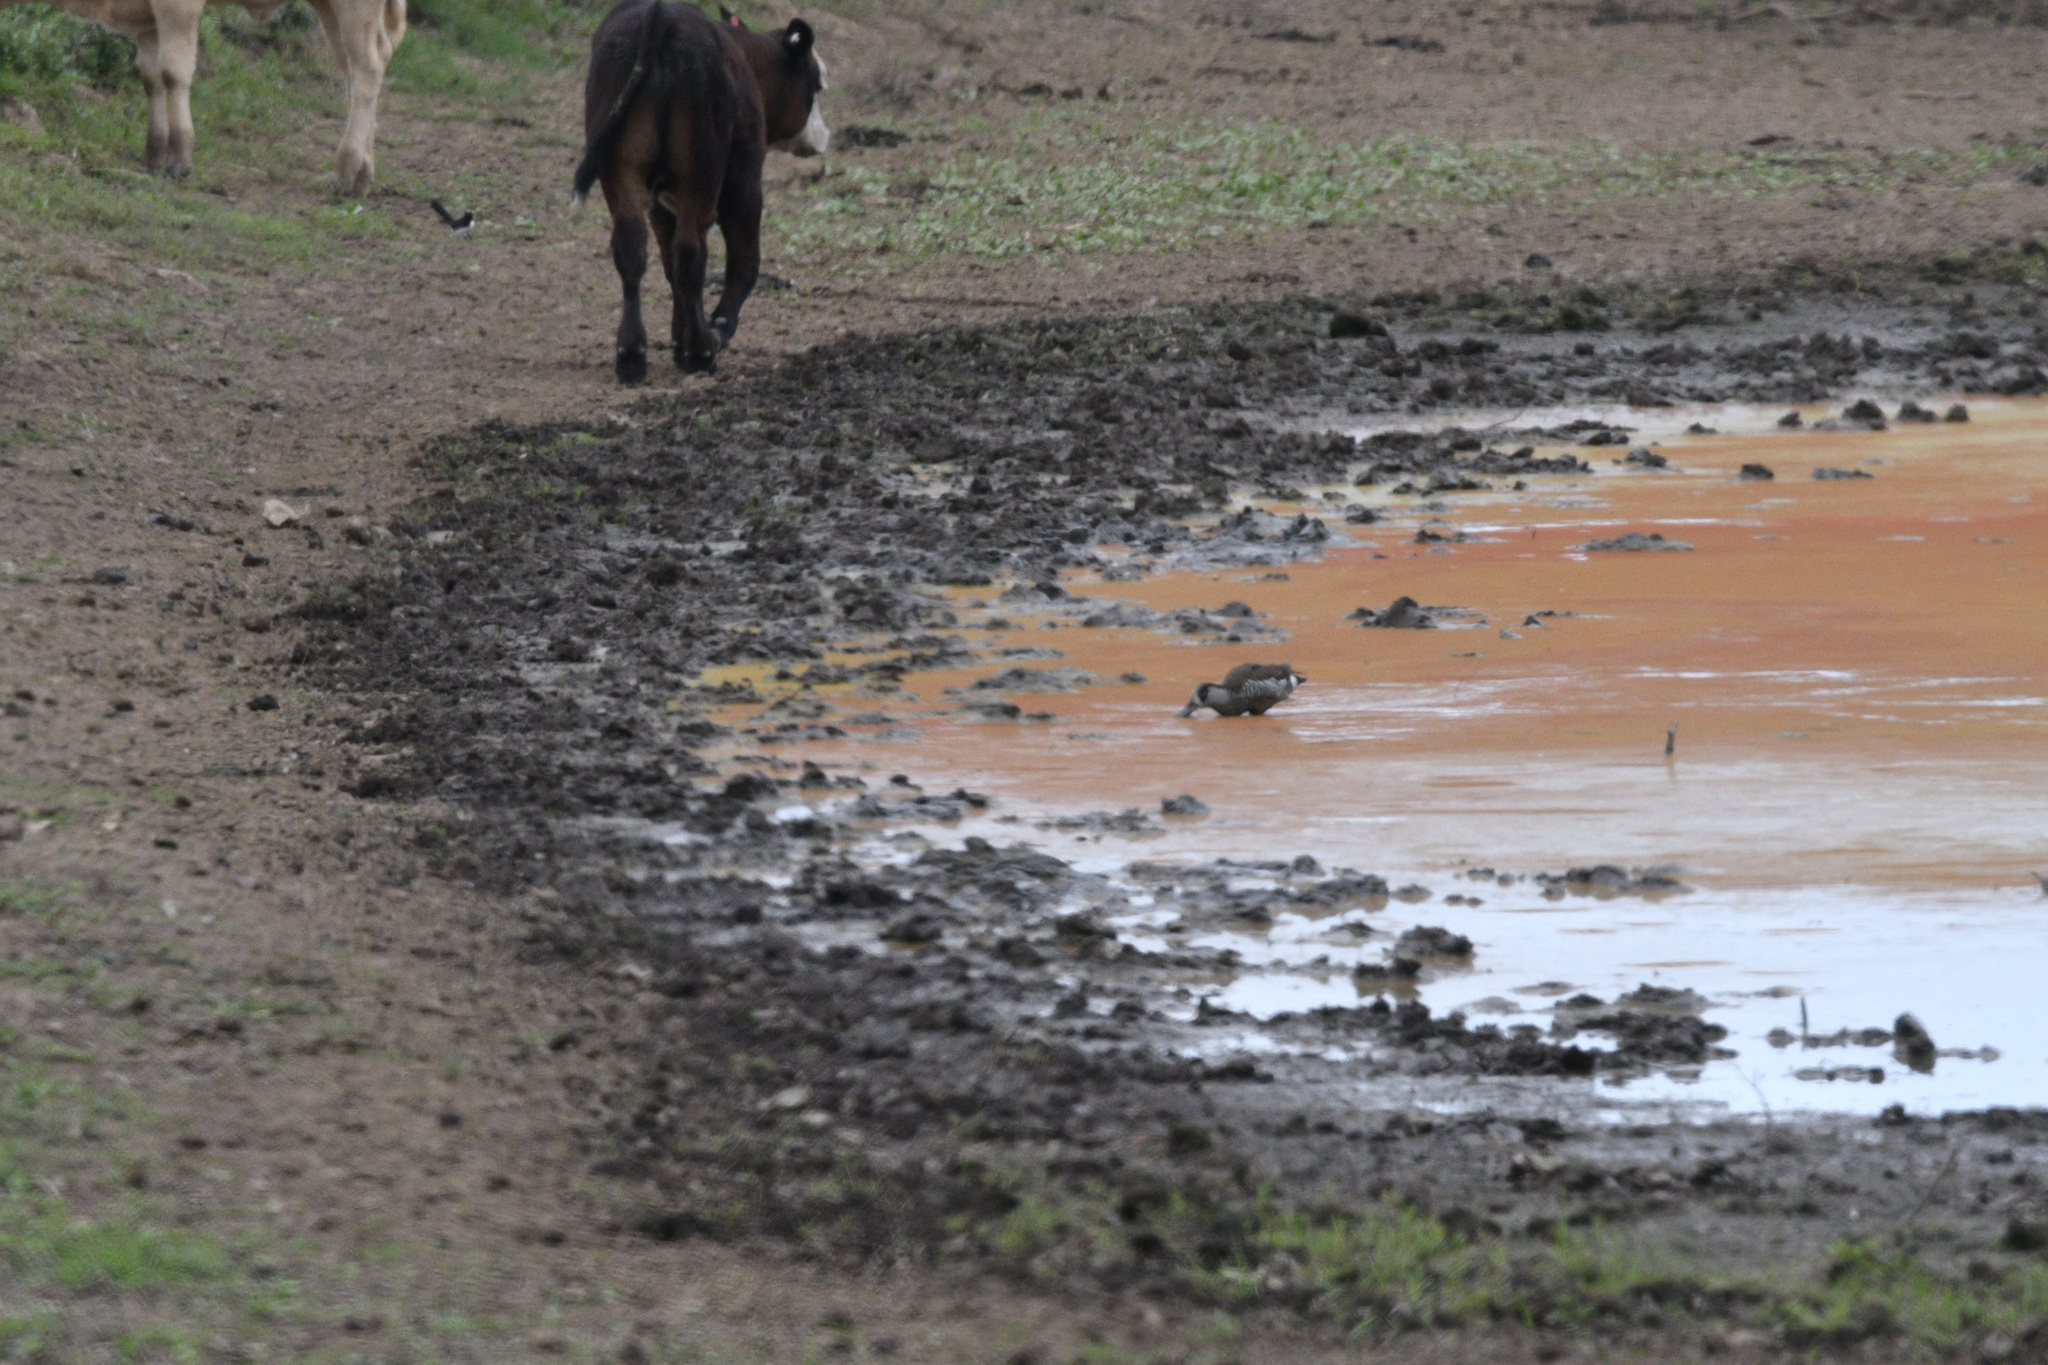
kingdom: Animalia
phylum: Chordata
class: Aves
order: Anseriformes
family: Anatidae
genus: Malacorhynchus
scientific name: Malacorhynchus membranaceus
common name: Pink-eared duck
